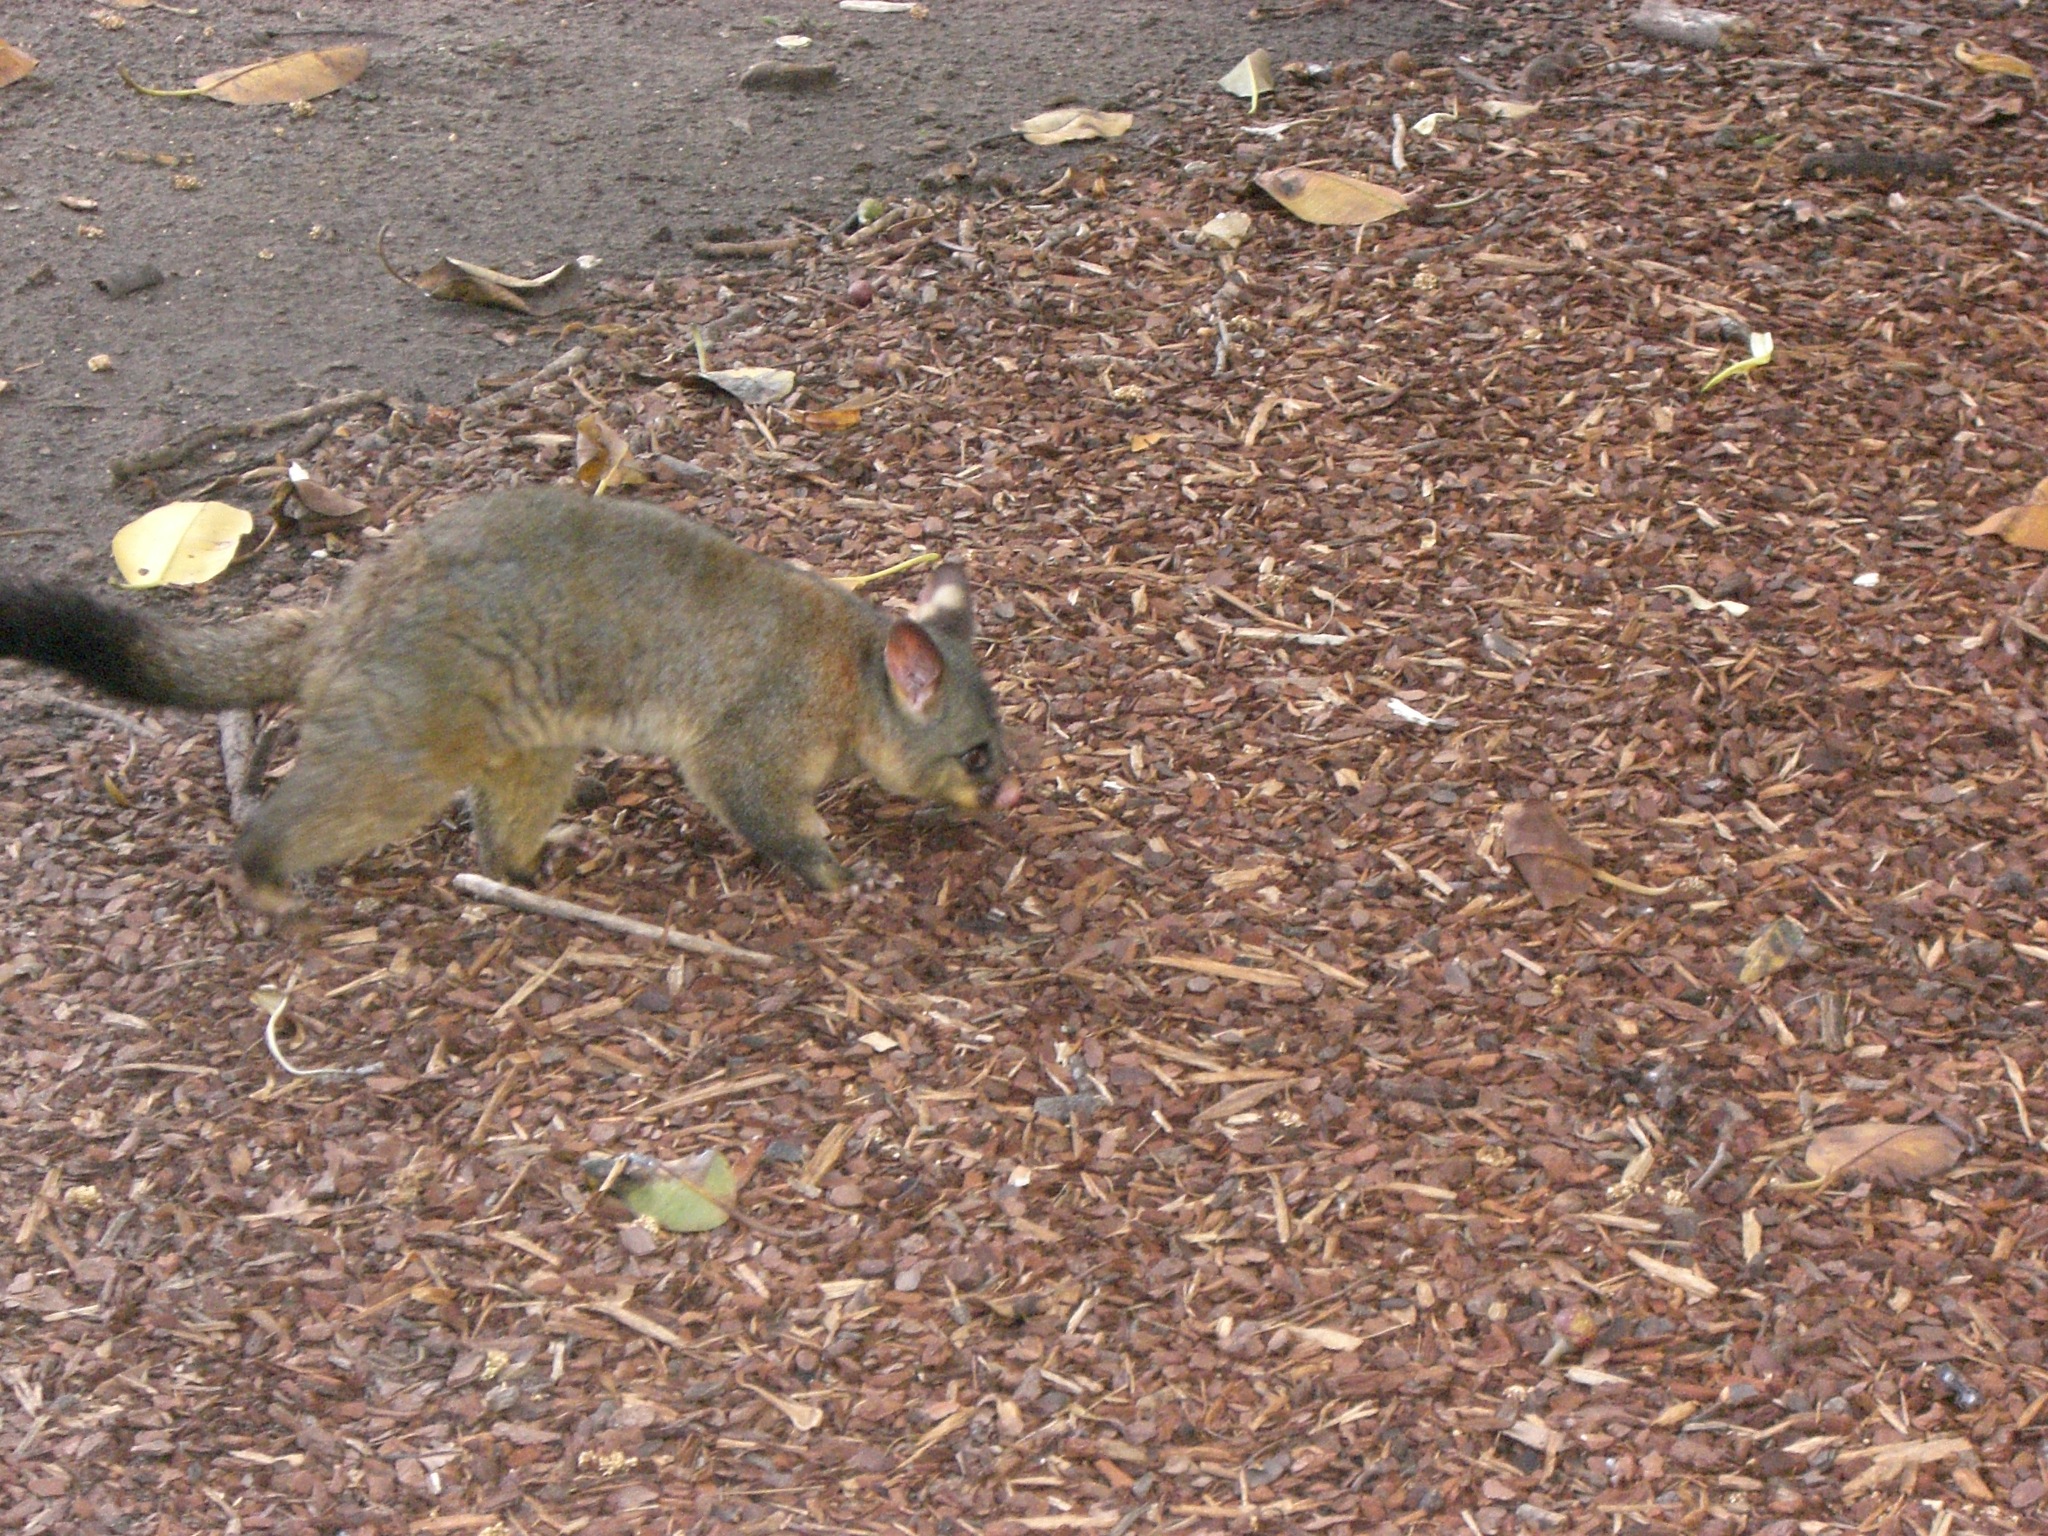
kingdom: Animalia
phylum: Chordata
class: Mammalia
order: Diprotodontia
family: Phalangeridae
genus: Trichosurus
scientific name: Trichosurus vulpecula
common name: Common brushtail
